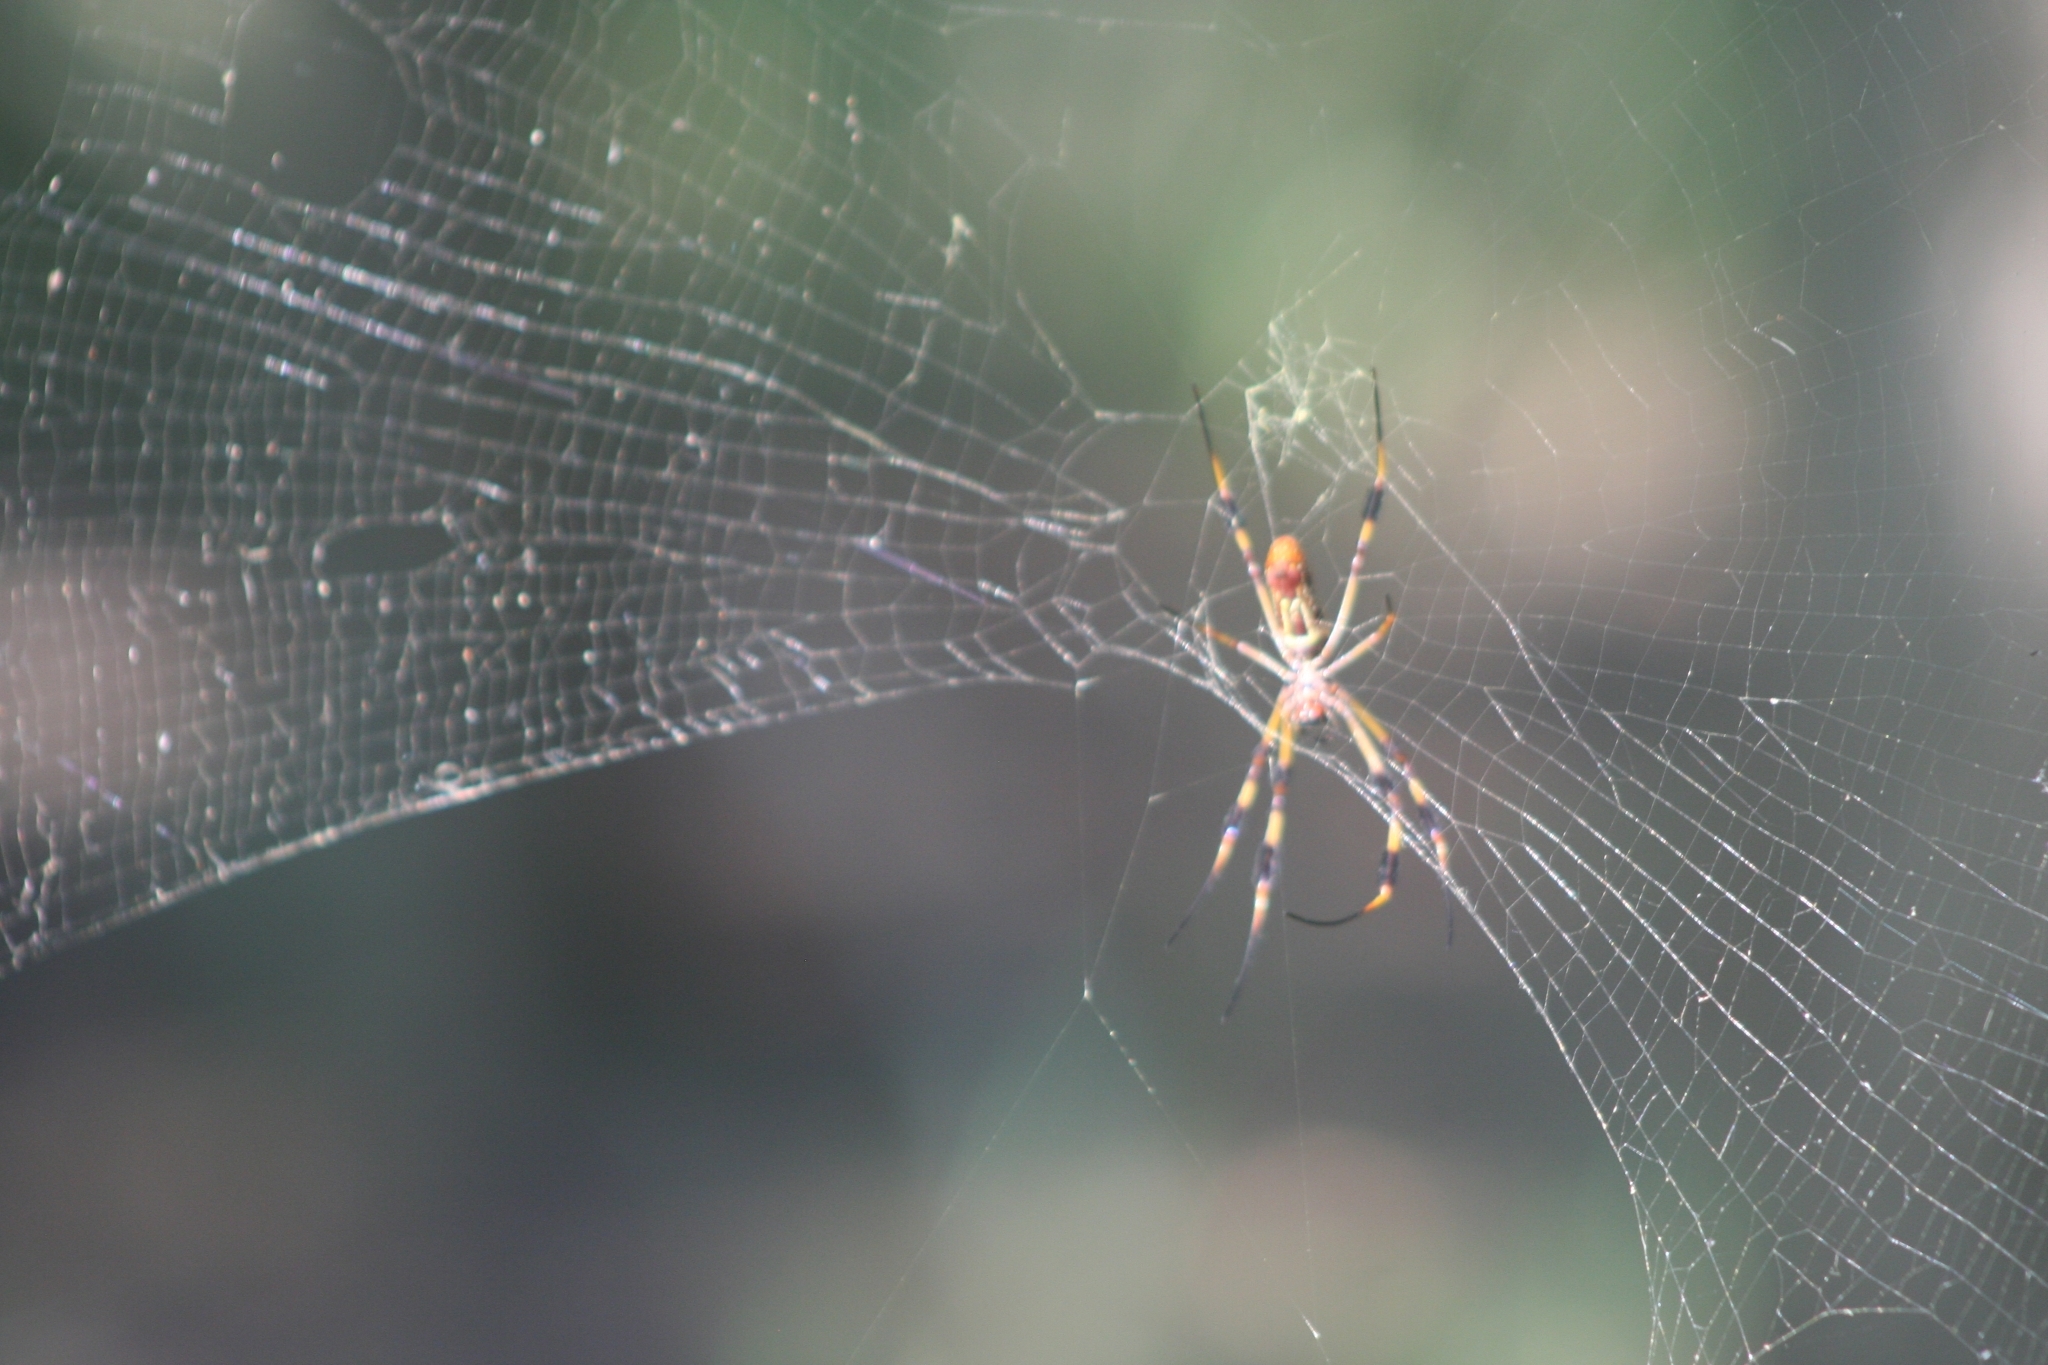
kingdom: Animalia
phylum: Arthropoda
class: Arachnida
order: Araneae
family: Araneidae
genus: Trichonephila
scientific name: Trichonephila clavipes
